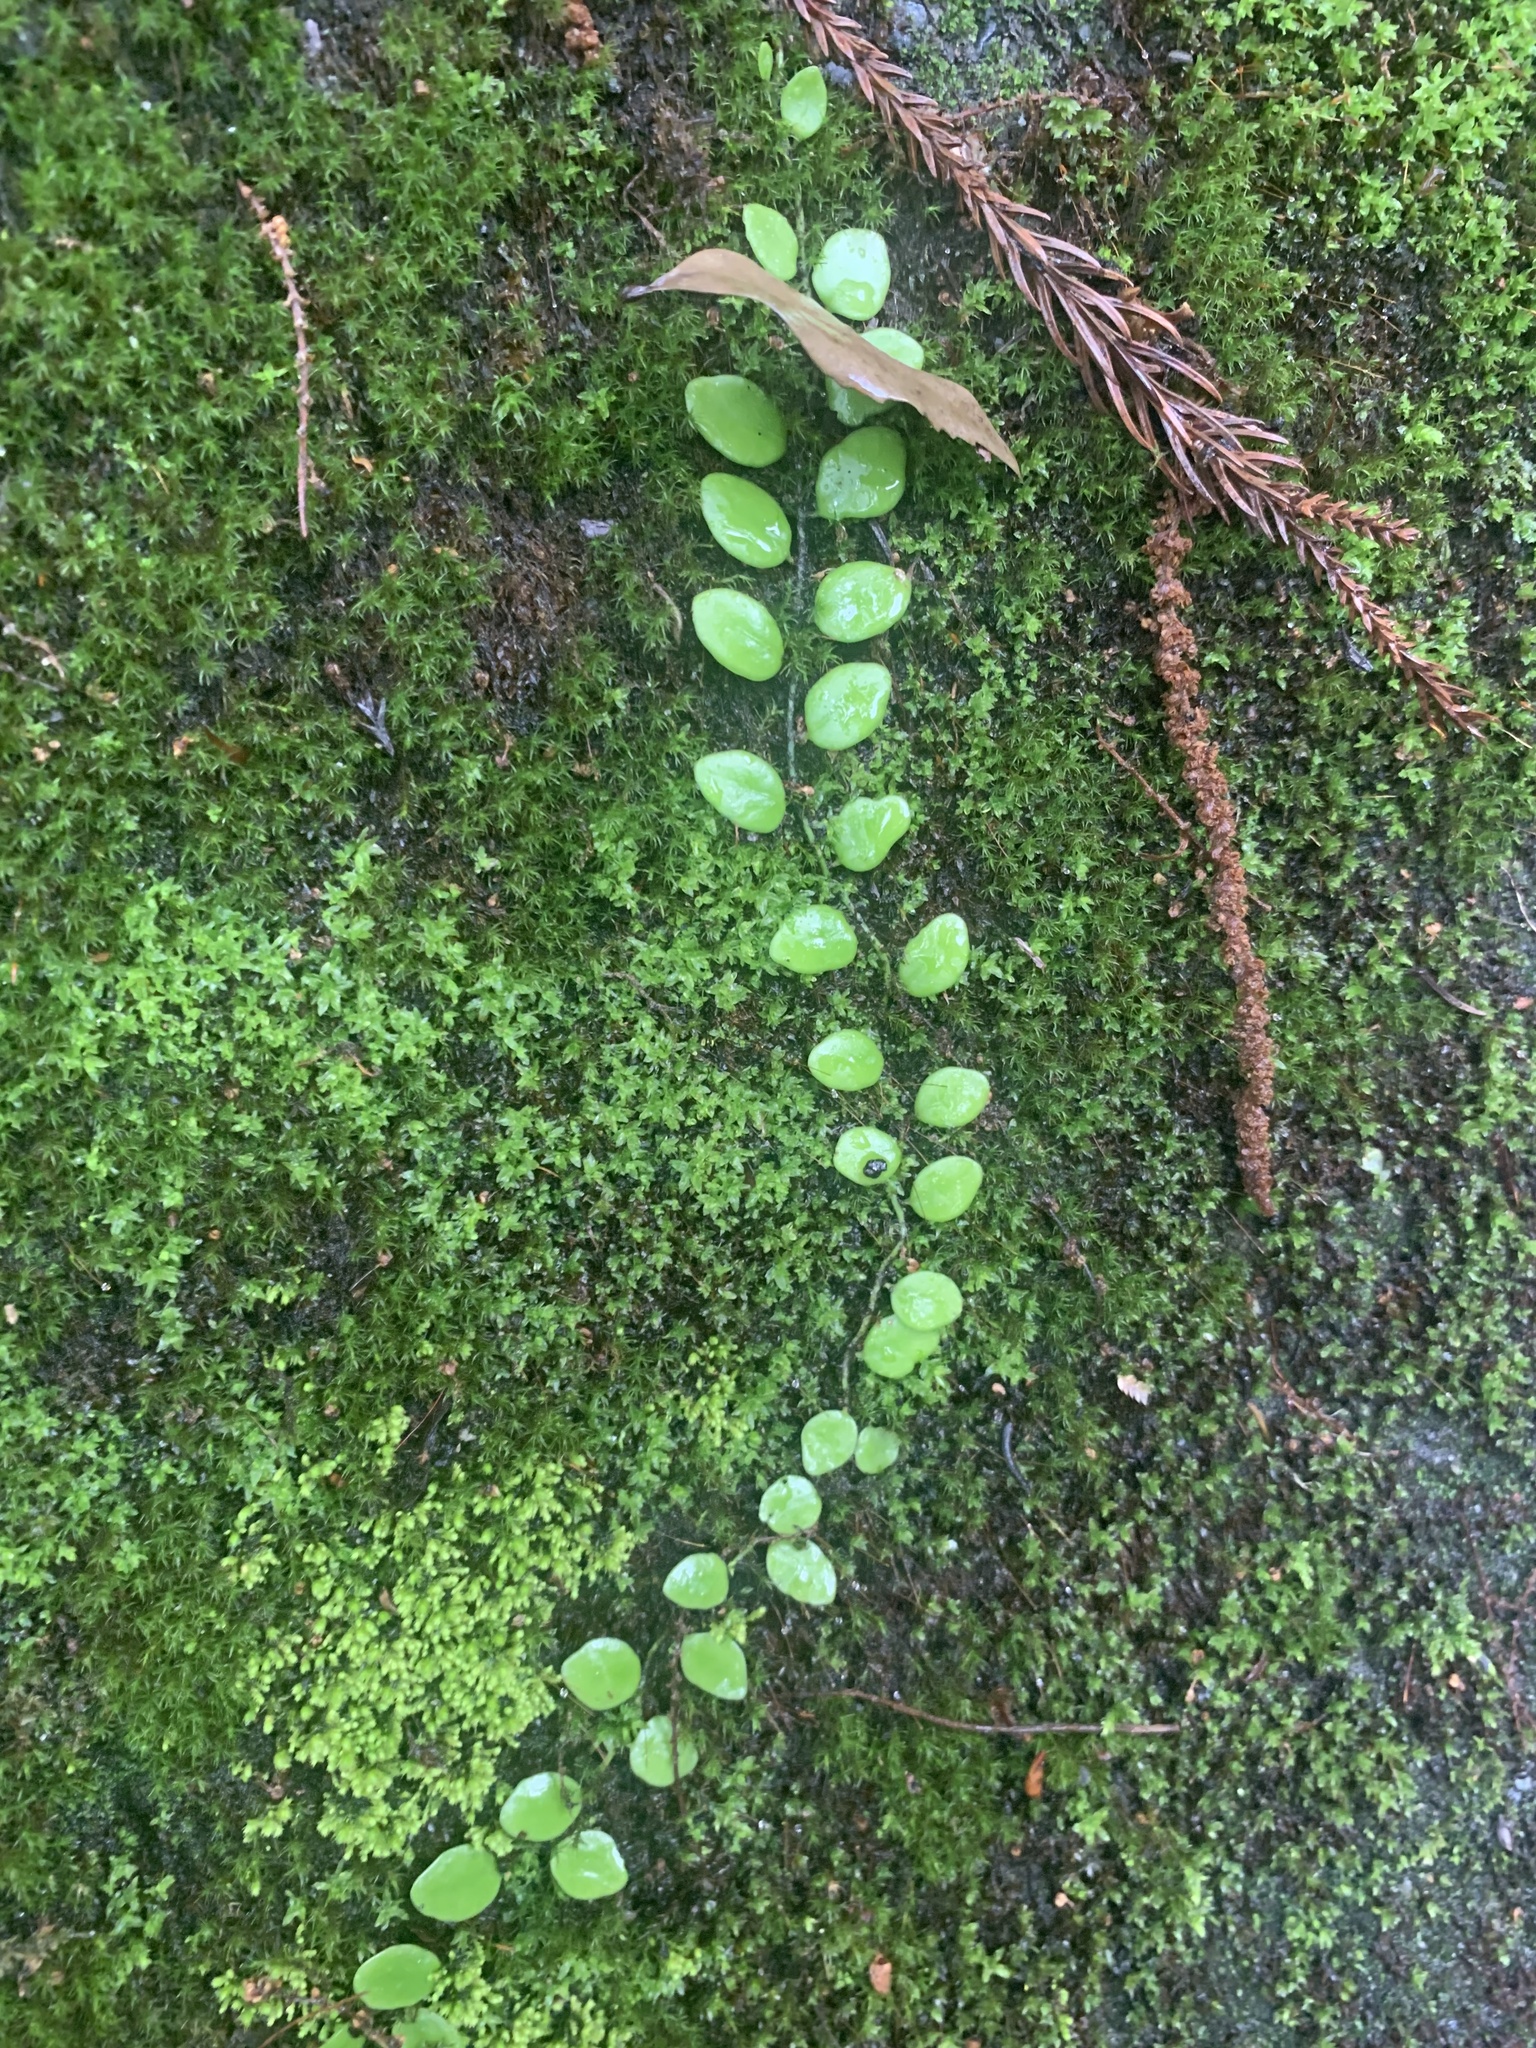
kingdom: Plantae
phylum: Tracheophyta
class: Polypodiopsida
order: Polypodiales
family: Polypodiaceae
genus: Lepisorus
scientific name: Lepisorus microphyllus
